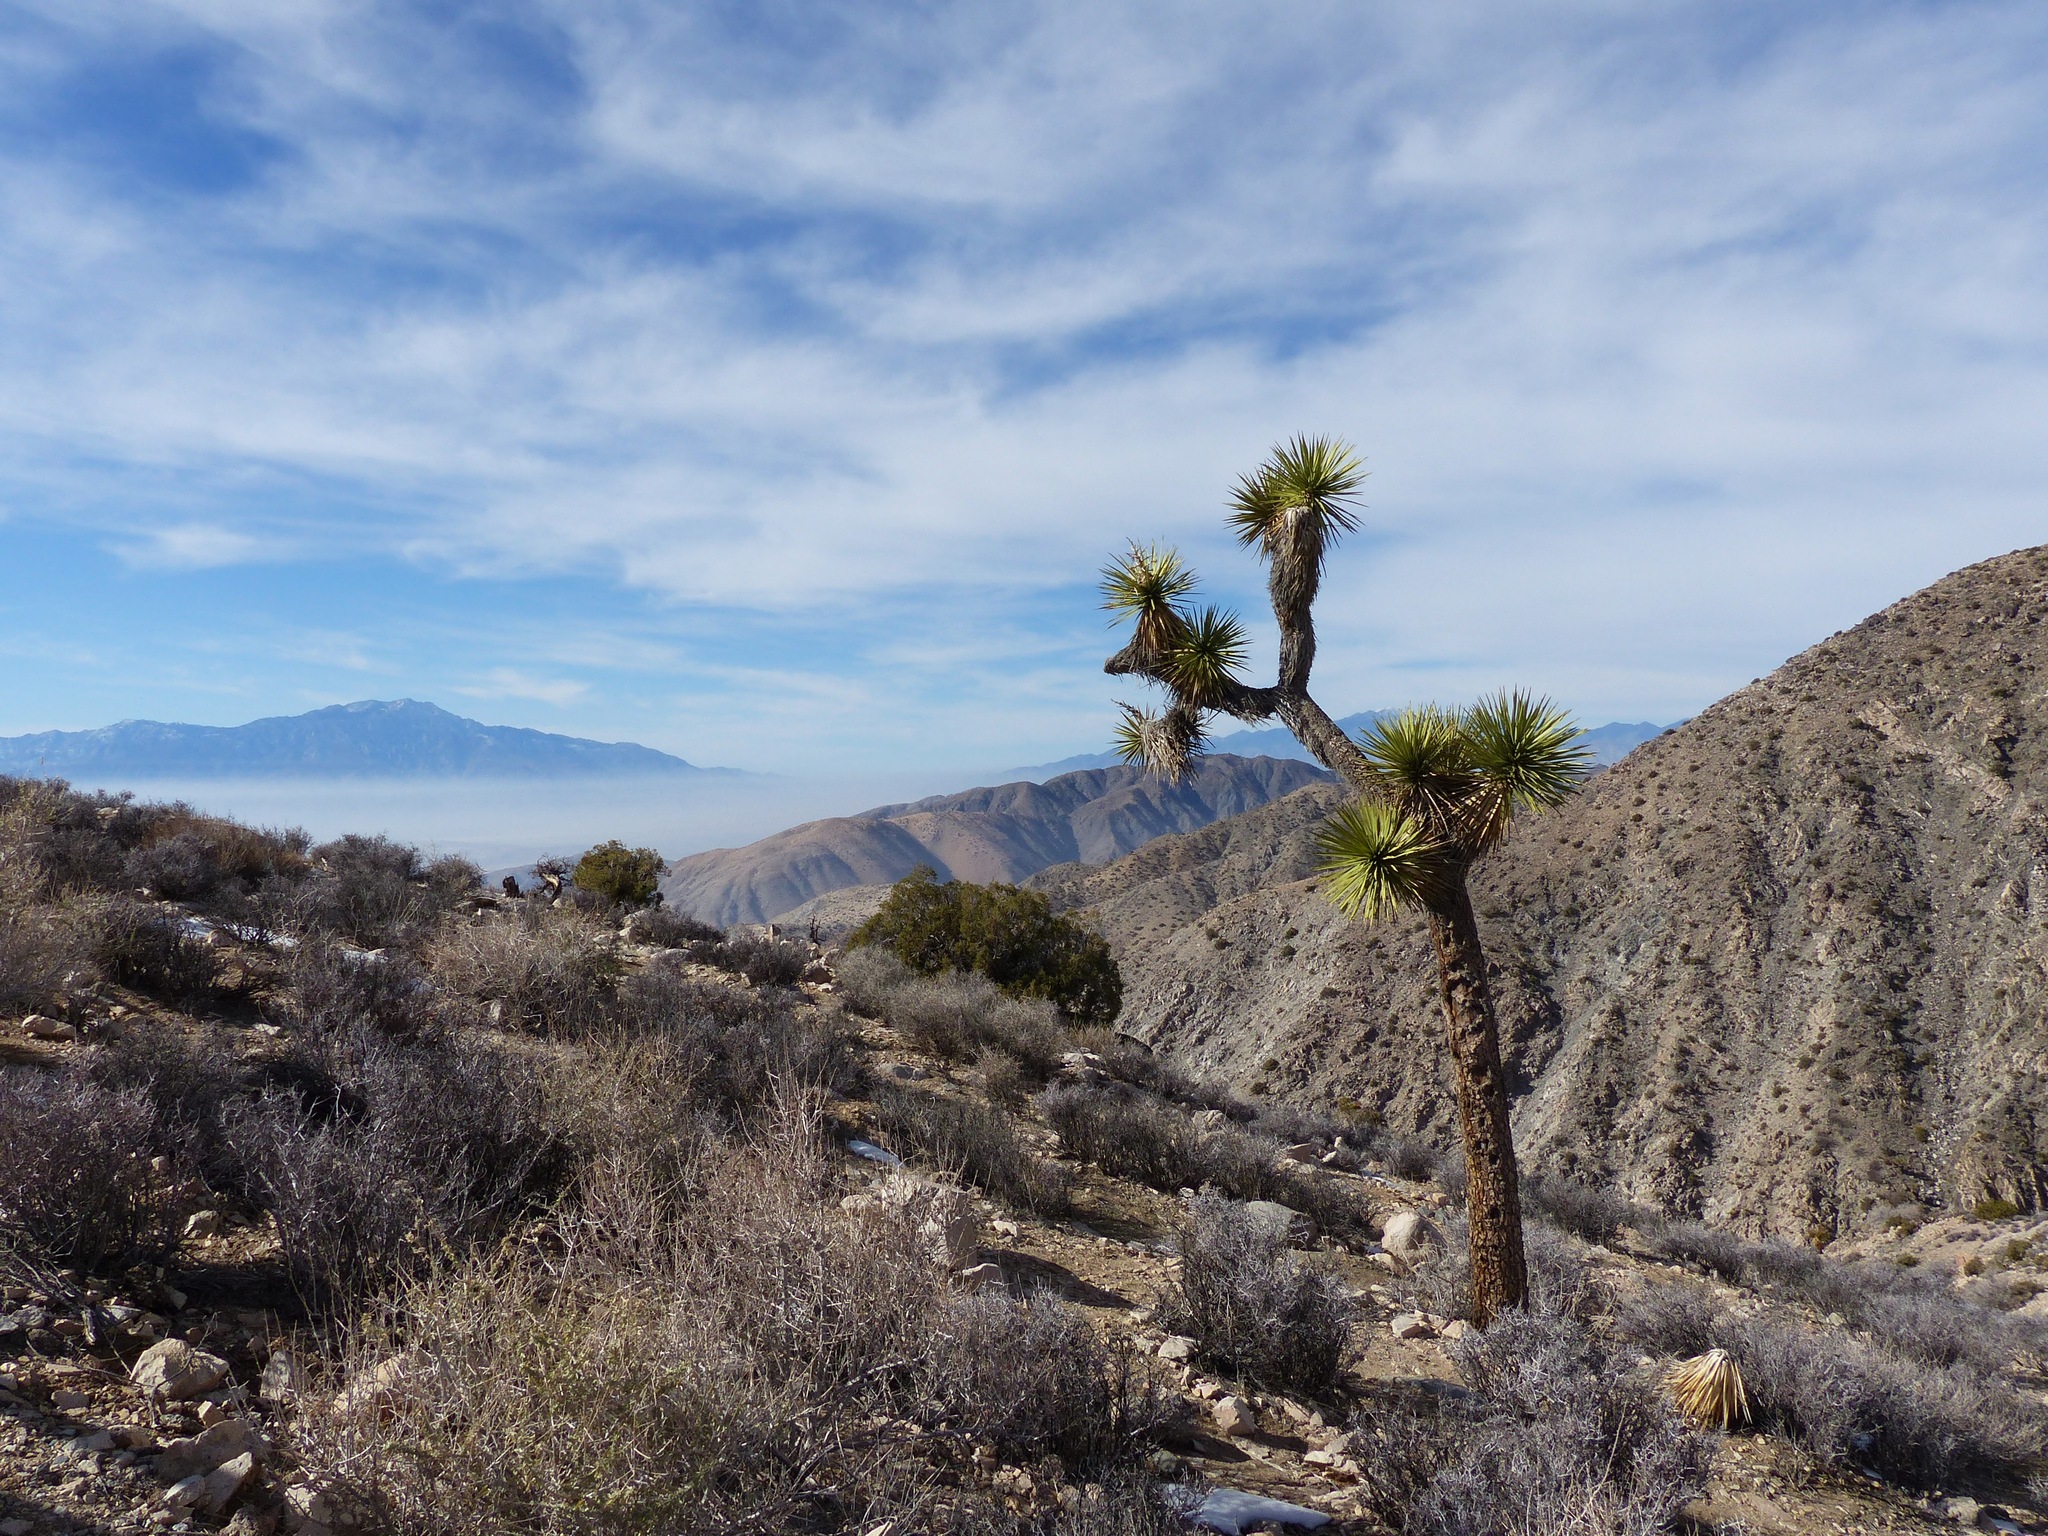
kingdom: Plantae
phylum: Tracheophyta
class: Liliopsida
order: Asparagales
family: Asparagaceae
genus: Yucca
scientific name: Yucca brevifolia
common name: Joshua tree
